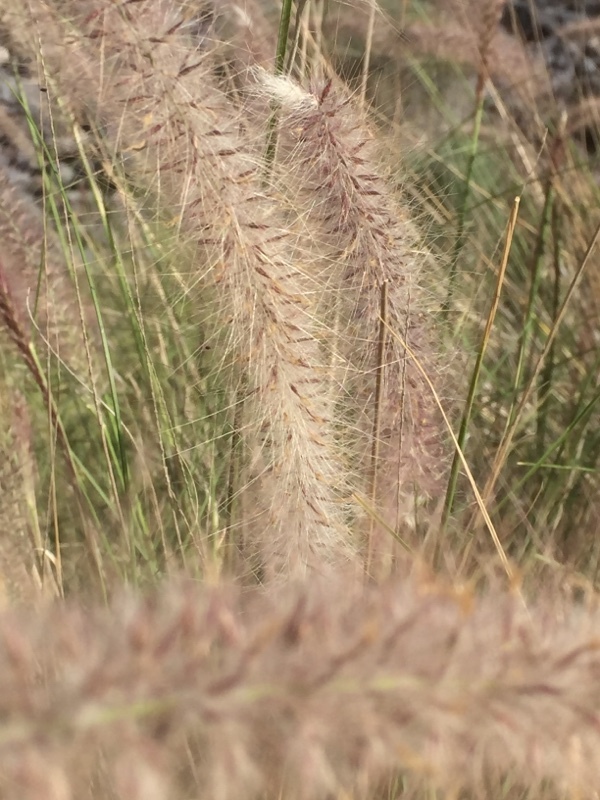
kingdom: Plantae
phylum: Tracheophyta
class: Liliopsida
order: Poales
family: Poaceae
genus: Cenchrus
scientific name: Cenchrus setaceus
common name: Crimson fountaingrass
